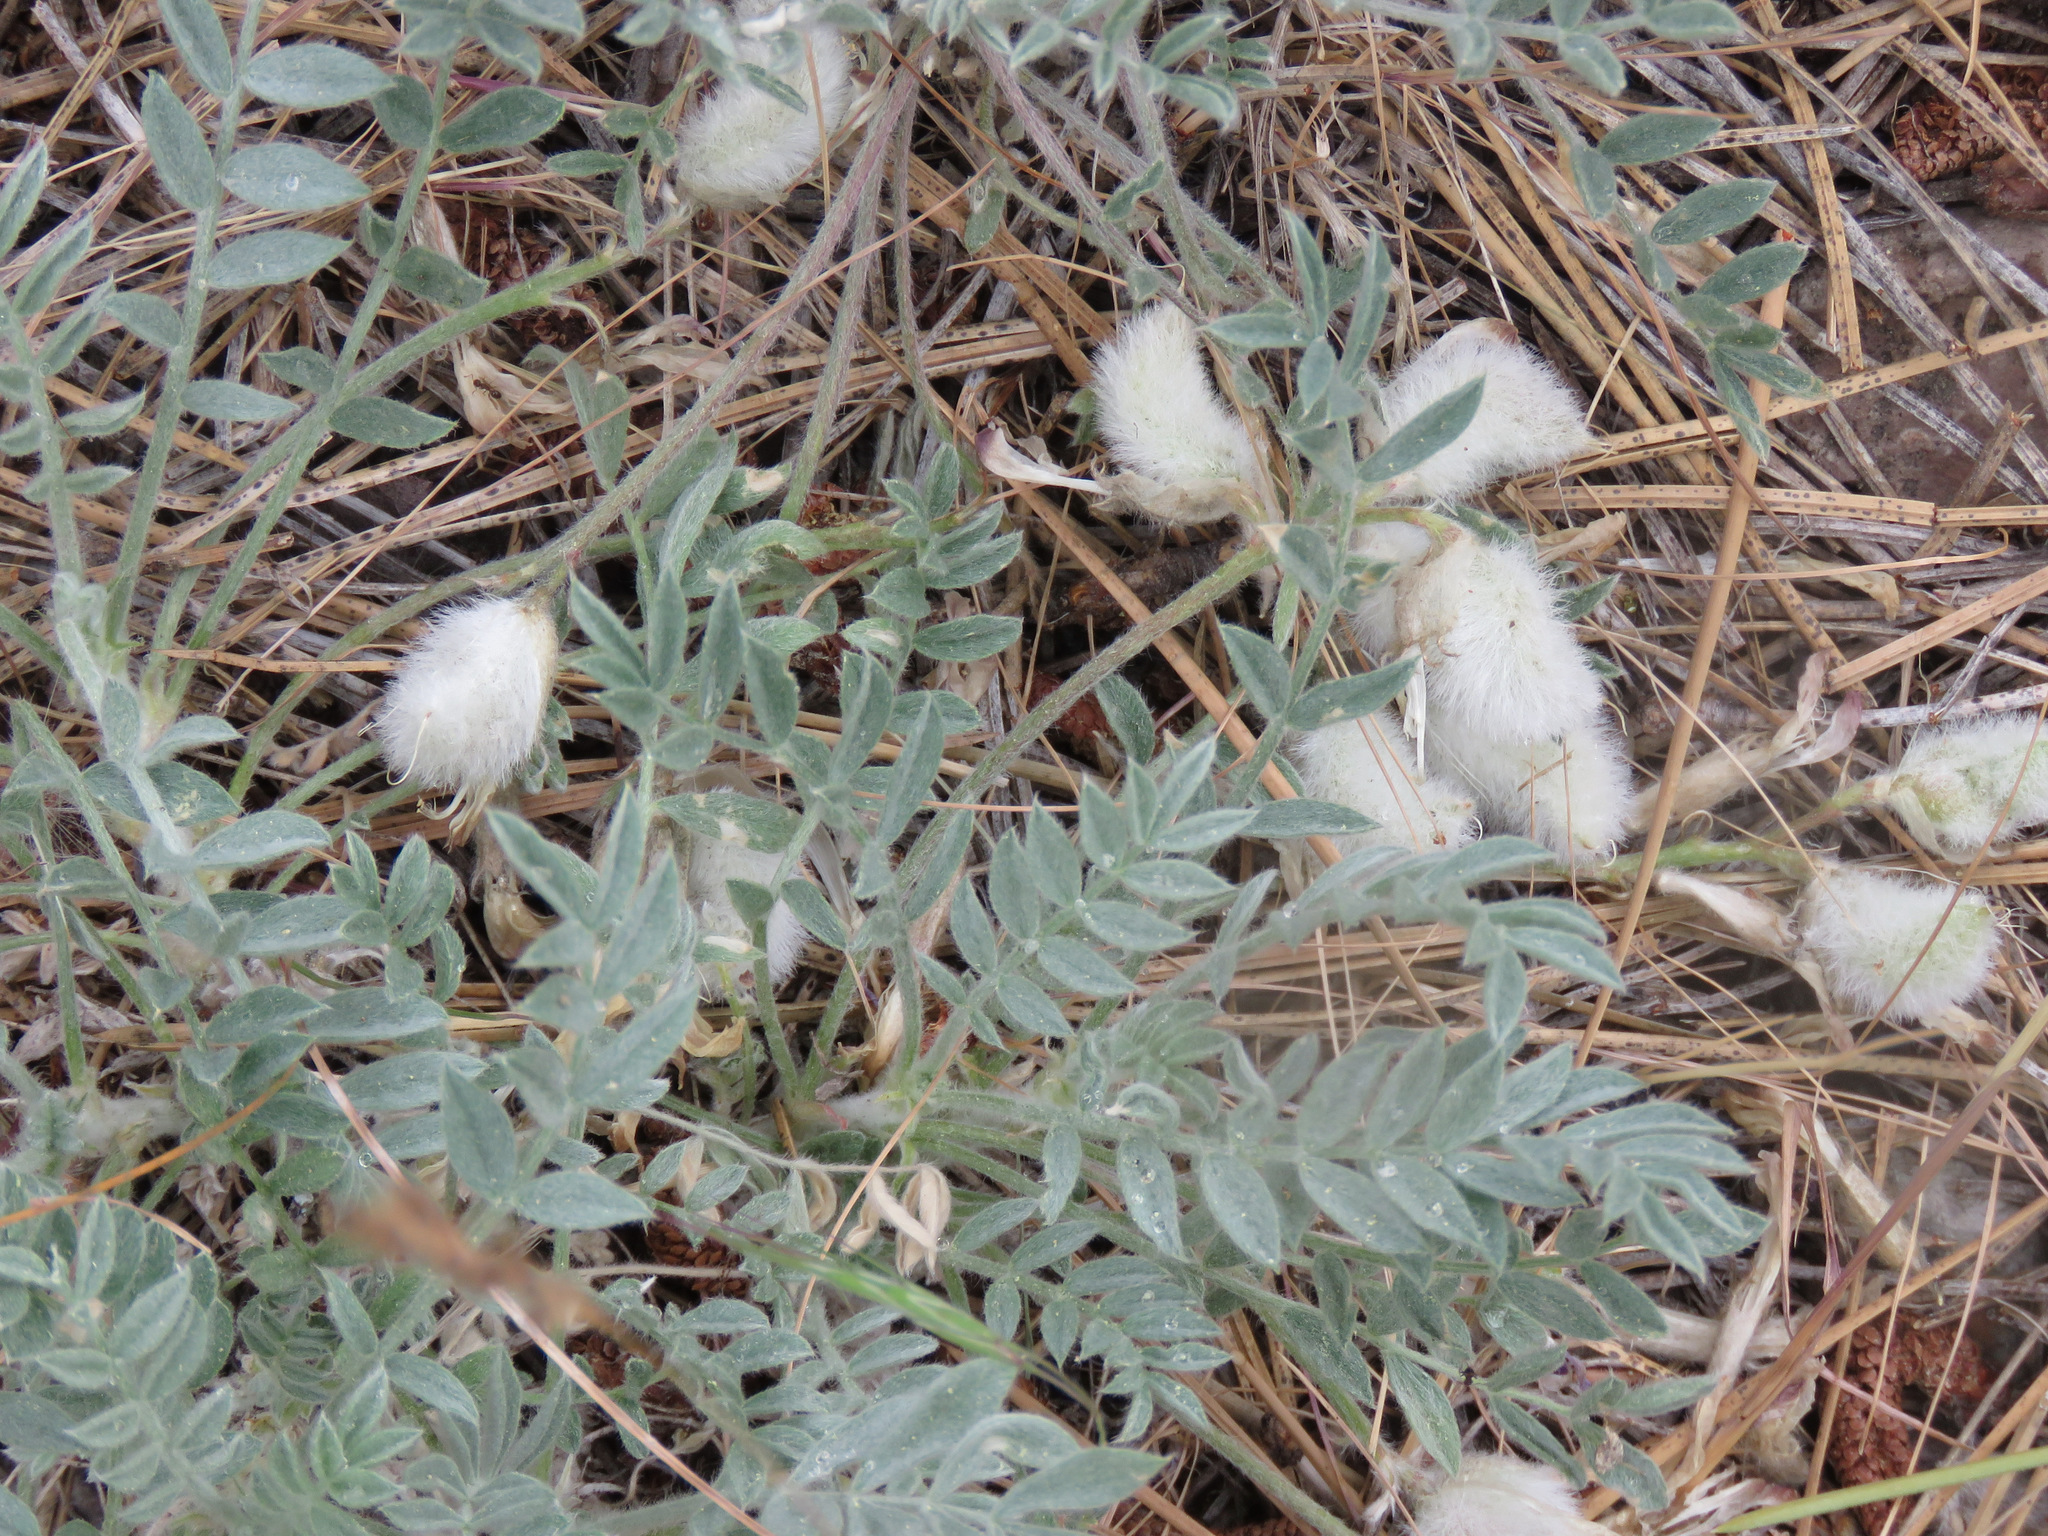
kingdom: Plantae
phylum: Tracheophyta
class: Magnoliopsida
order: Fabales
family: Fabaceae
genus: Astragalus
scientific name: Astragalus purshii
